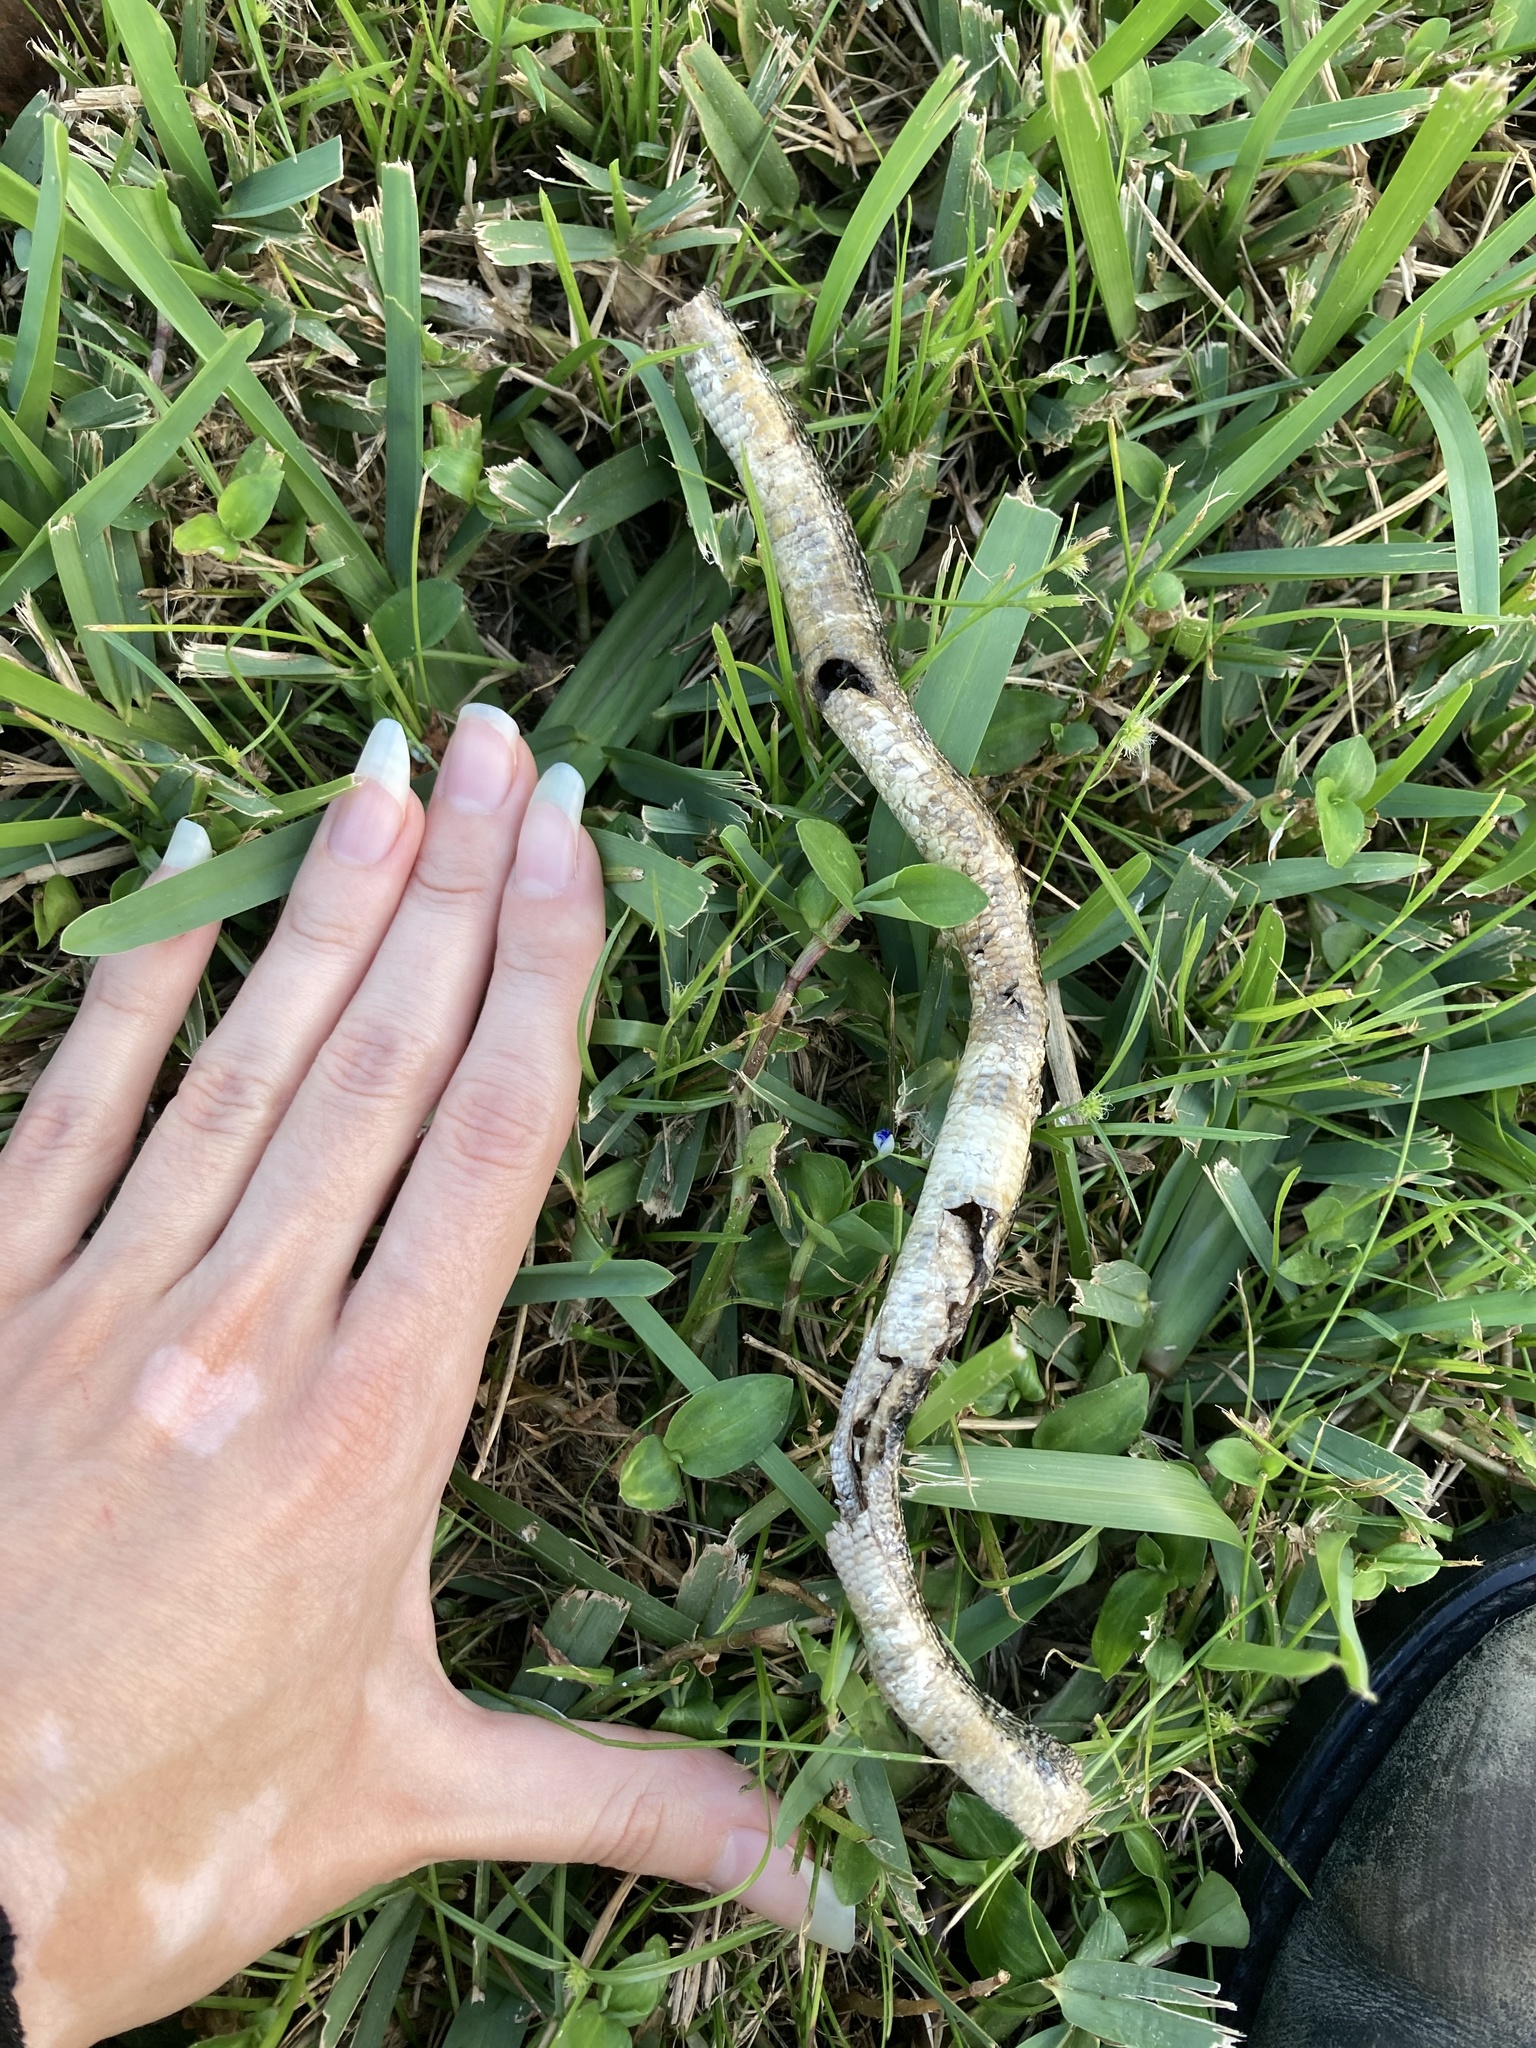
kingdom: Animalia
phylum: Chordata
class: Squamata
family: Anguidae
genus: Ophisaurus
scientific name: Ophisaurus ventralis
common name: Eastern glass lizard
